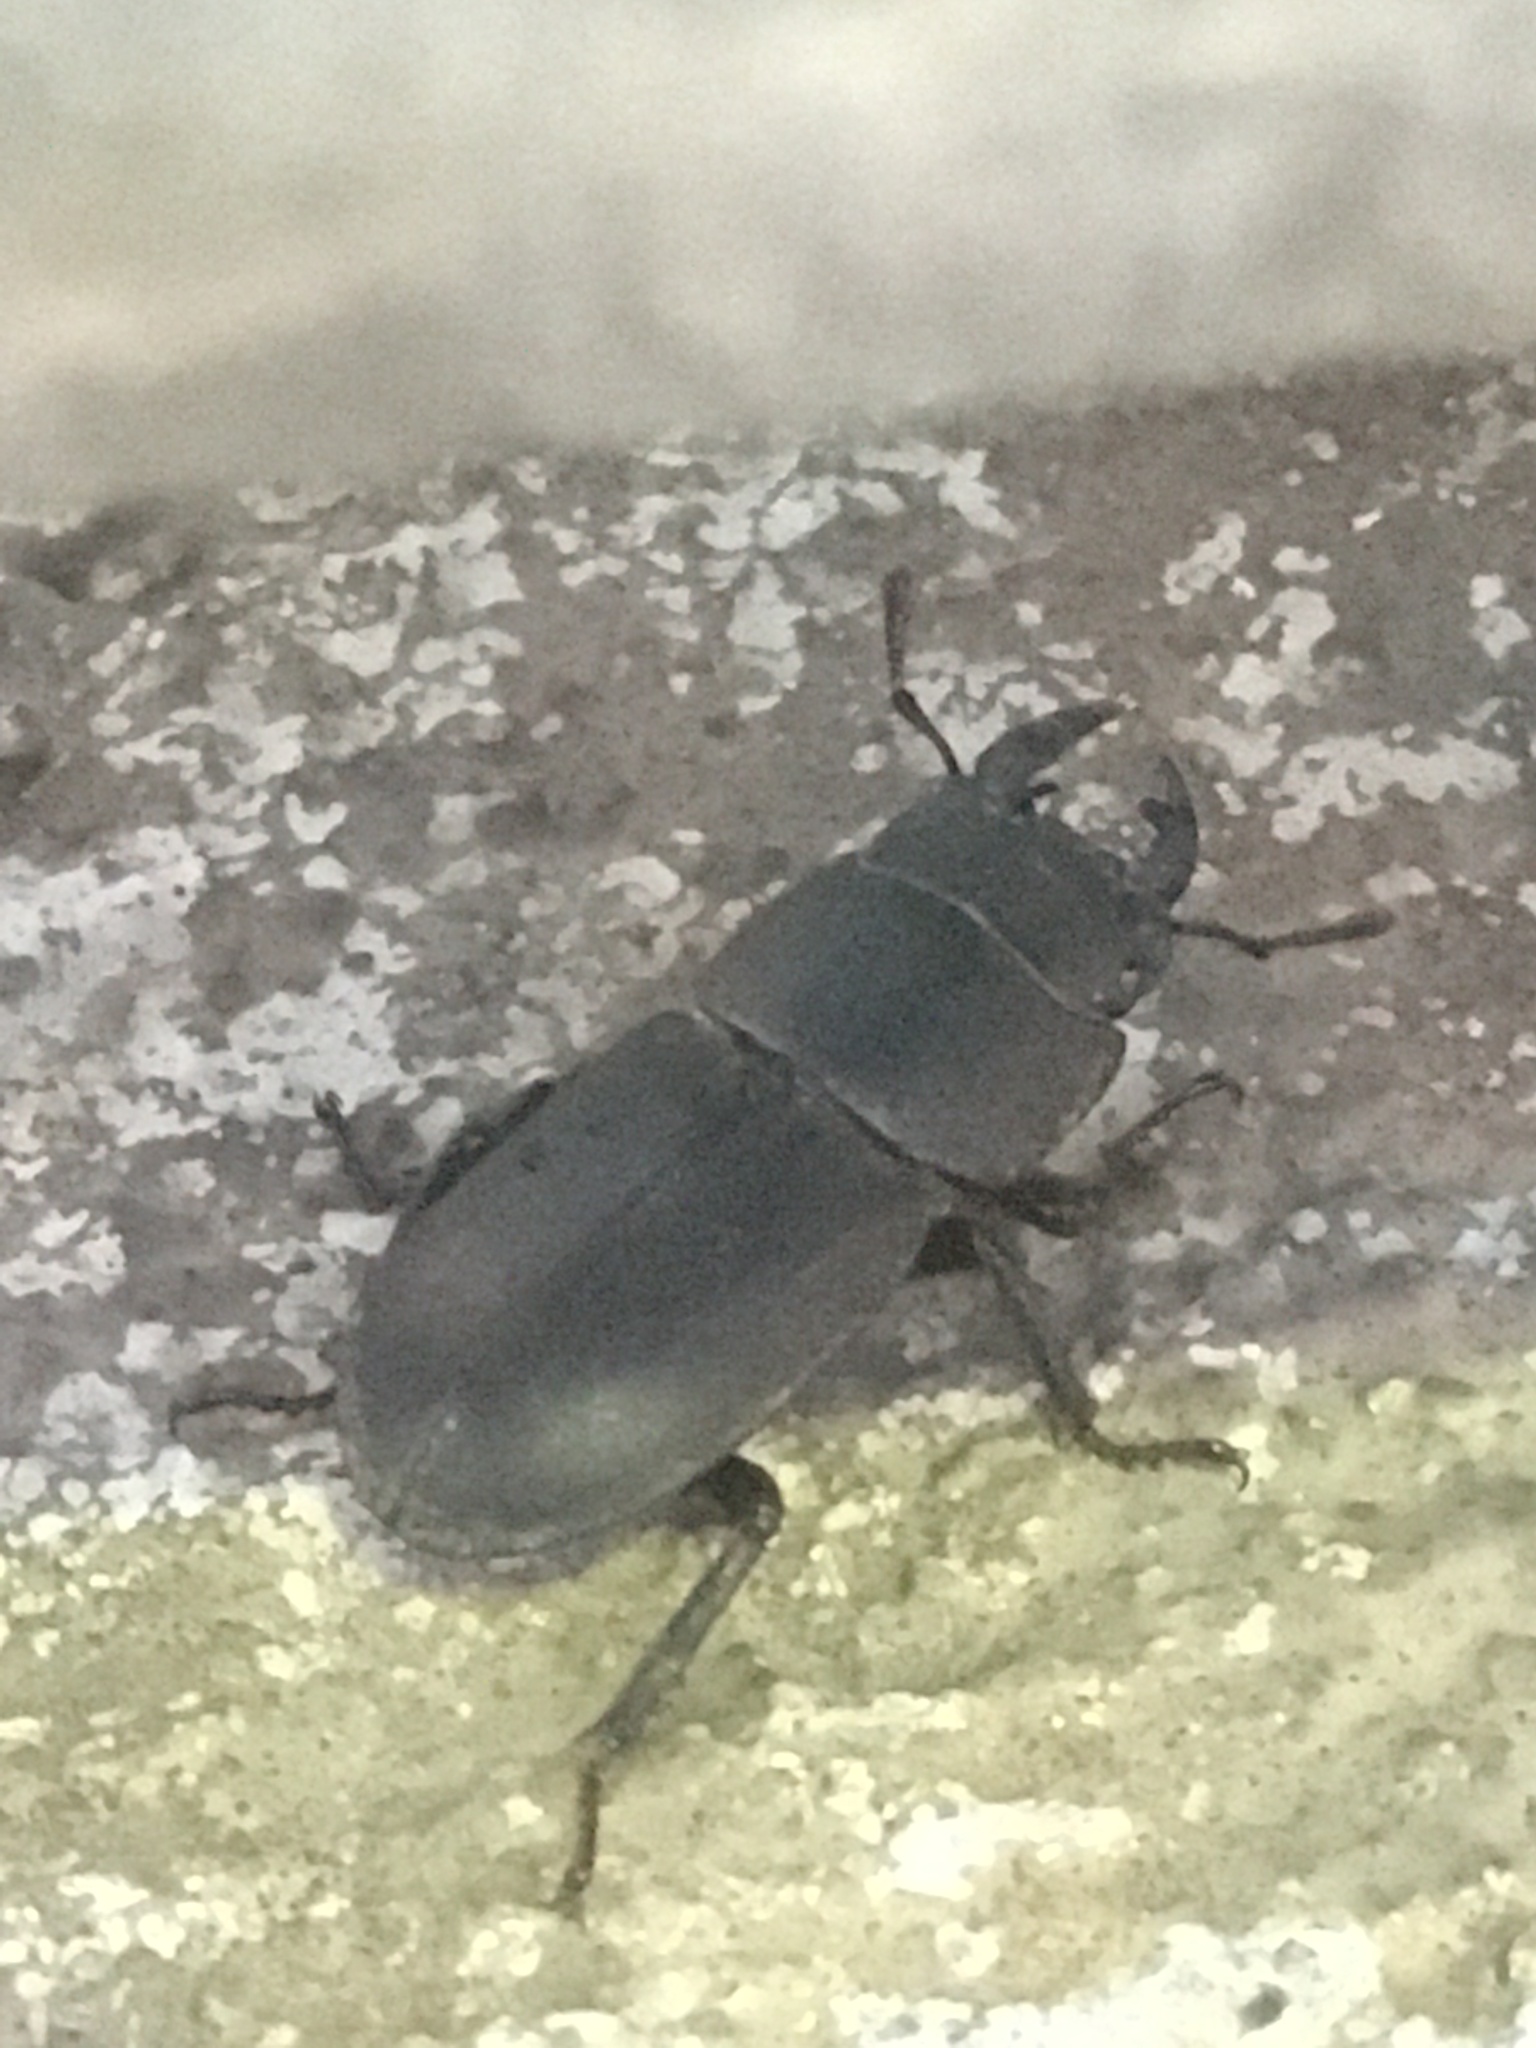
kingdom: Animalia
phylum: Arthropoda
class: Insecta
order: Coleoptera
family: Lucanidae
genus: Dorcus
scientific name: Dorcus parallelipipedus
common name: Lesser stag beetle
